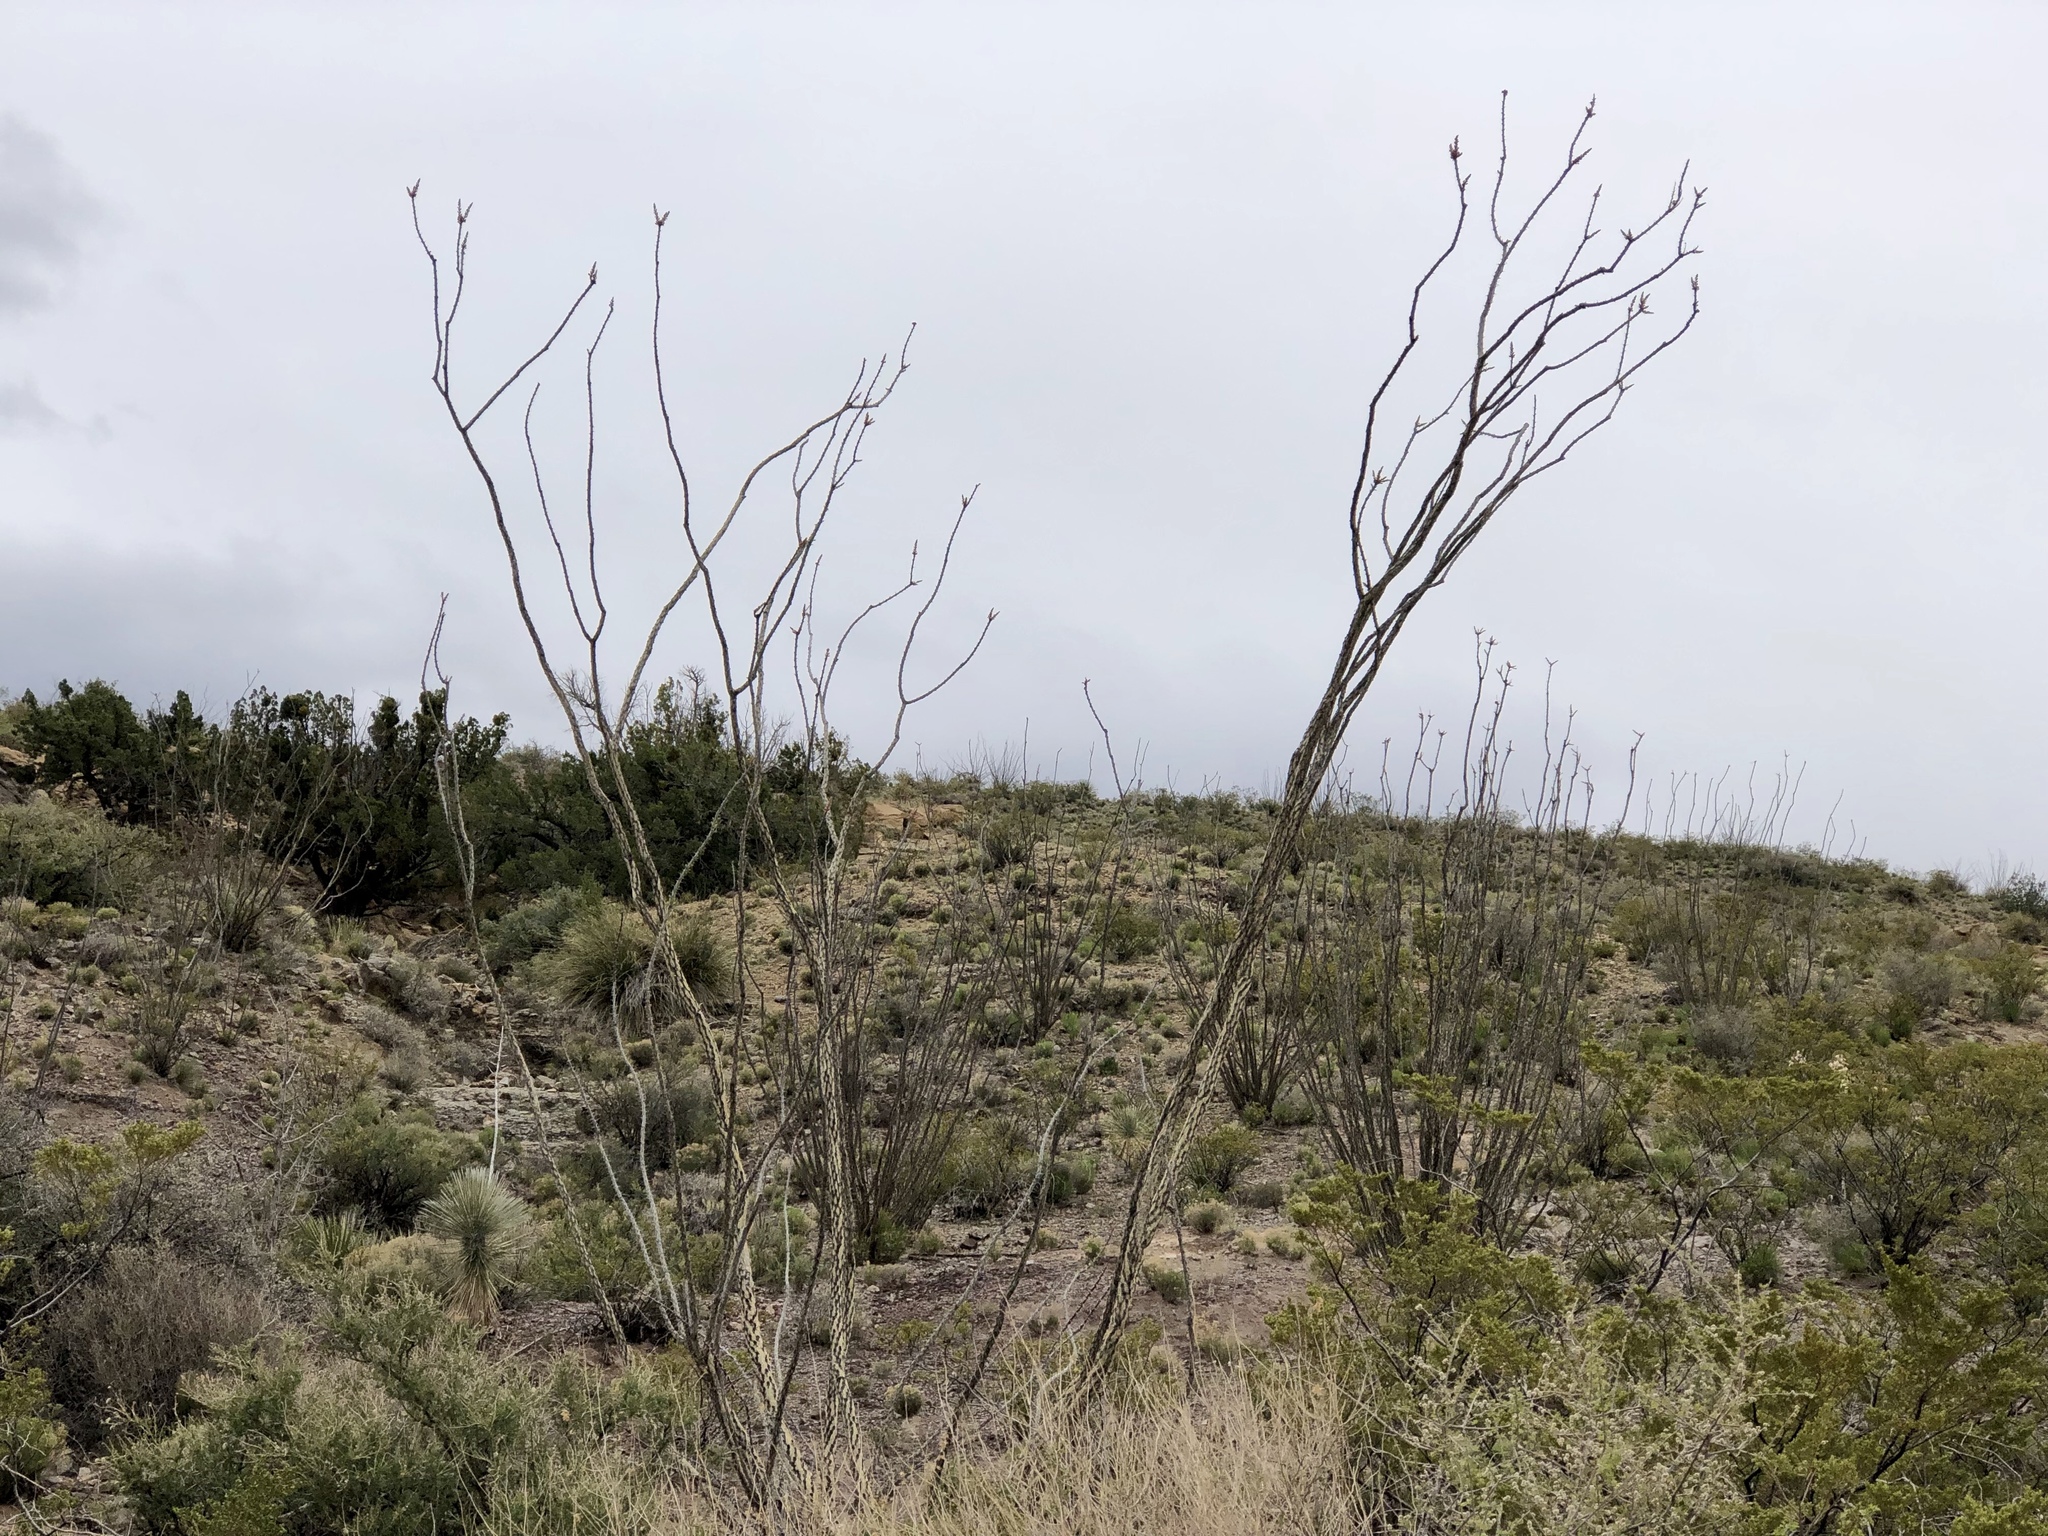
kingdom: Plantae
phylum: Tracheophyta
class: Magnoliopsida
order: Ericales
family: Fouquieriaceae
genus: Fouquieria
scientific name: Fouquieria splendens
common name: Vine-cactus
